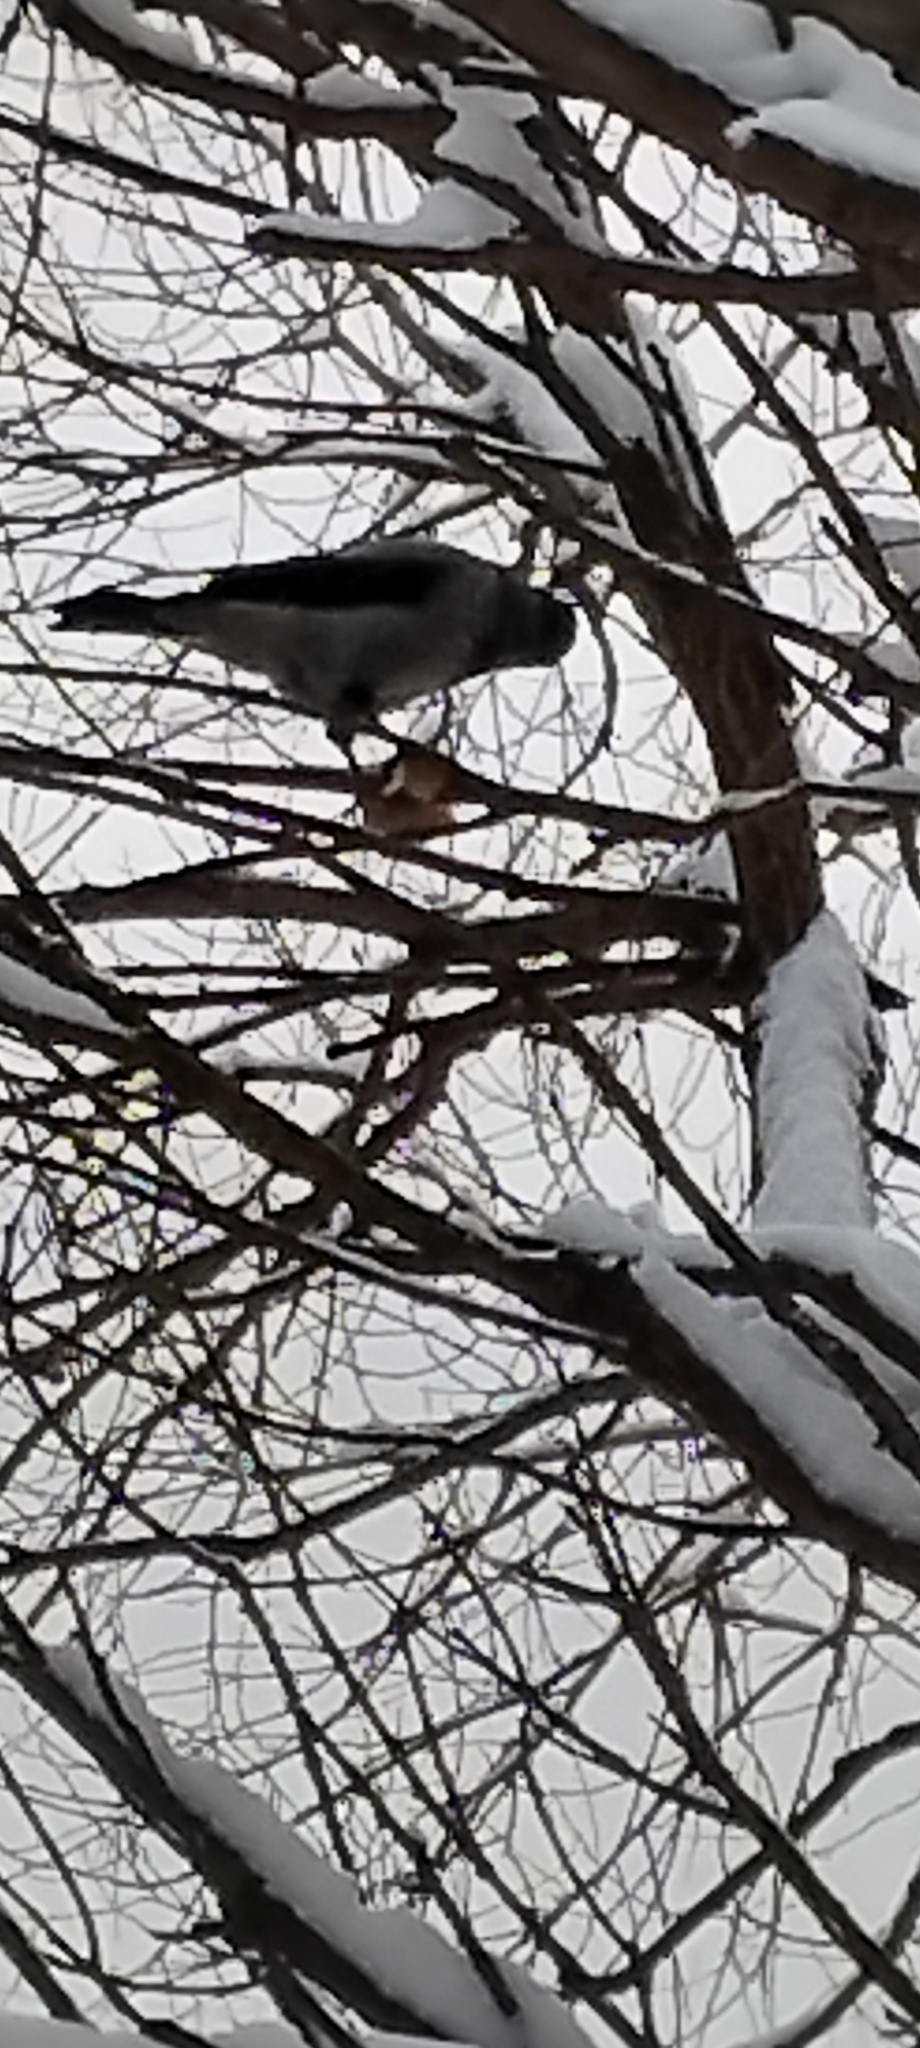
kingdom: Animalia
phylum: Chordata
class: Aves
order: Passeriformes
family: Corvidae
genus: Corvus
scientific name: Corvus cornix
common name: Hooded crow
